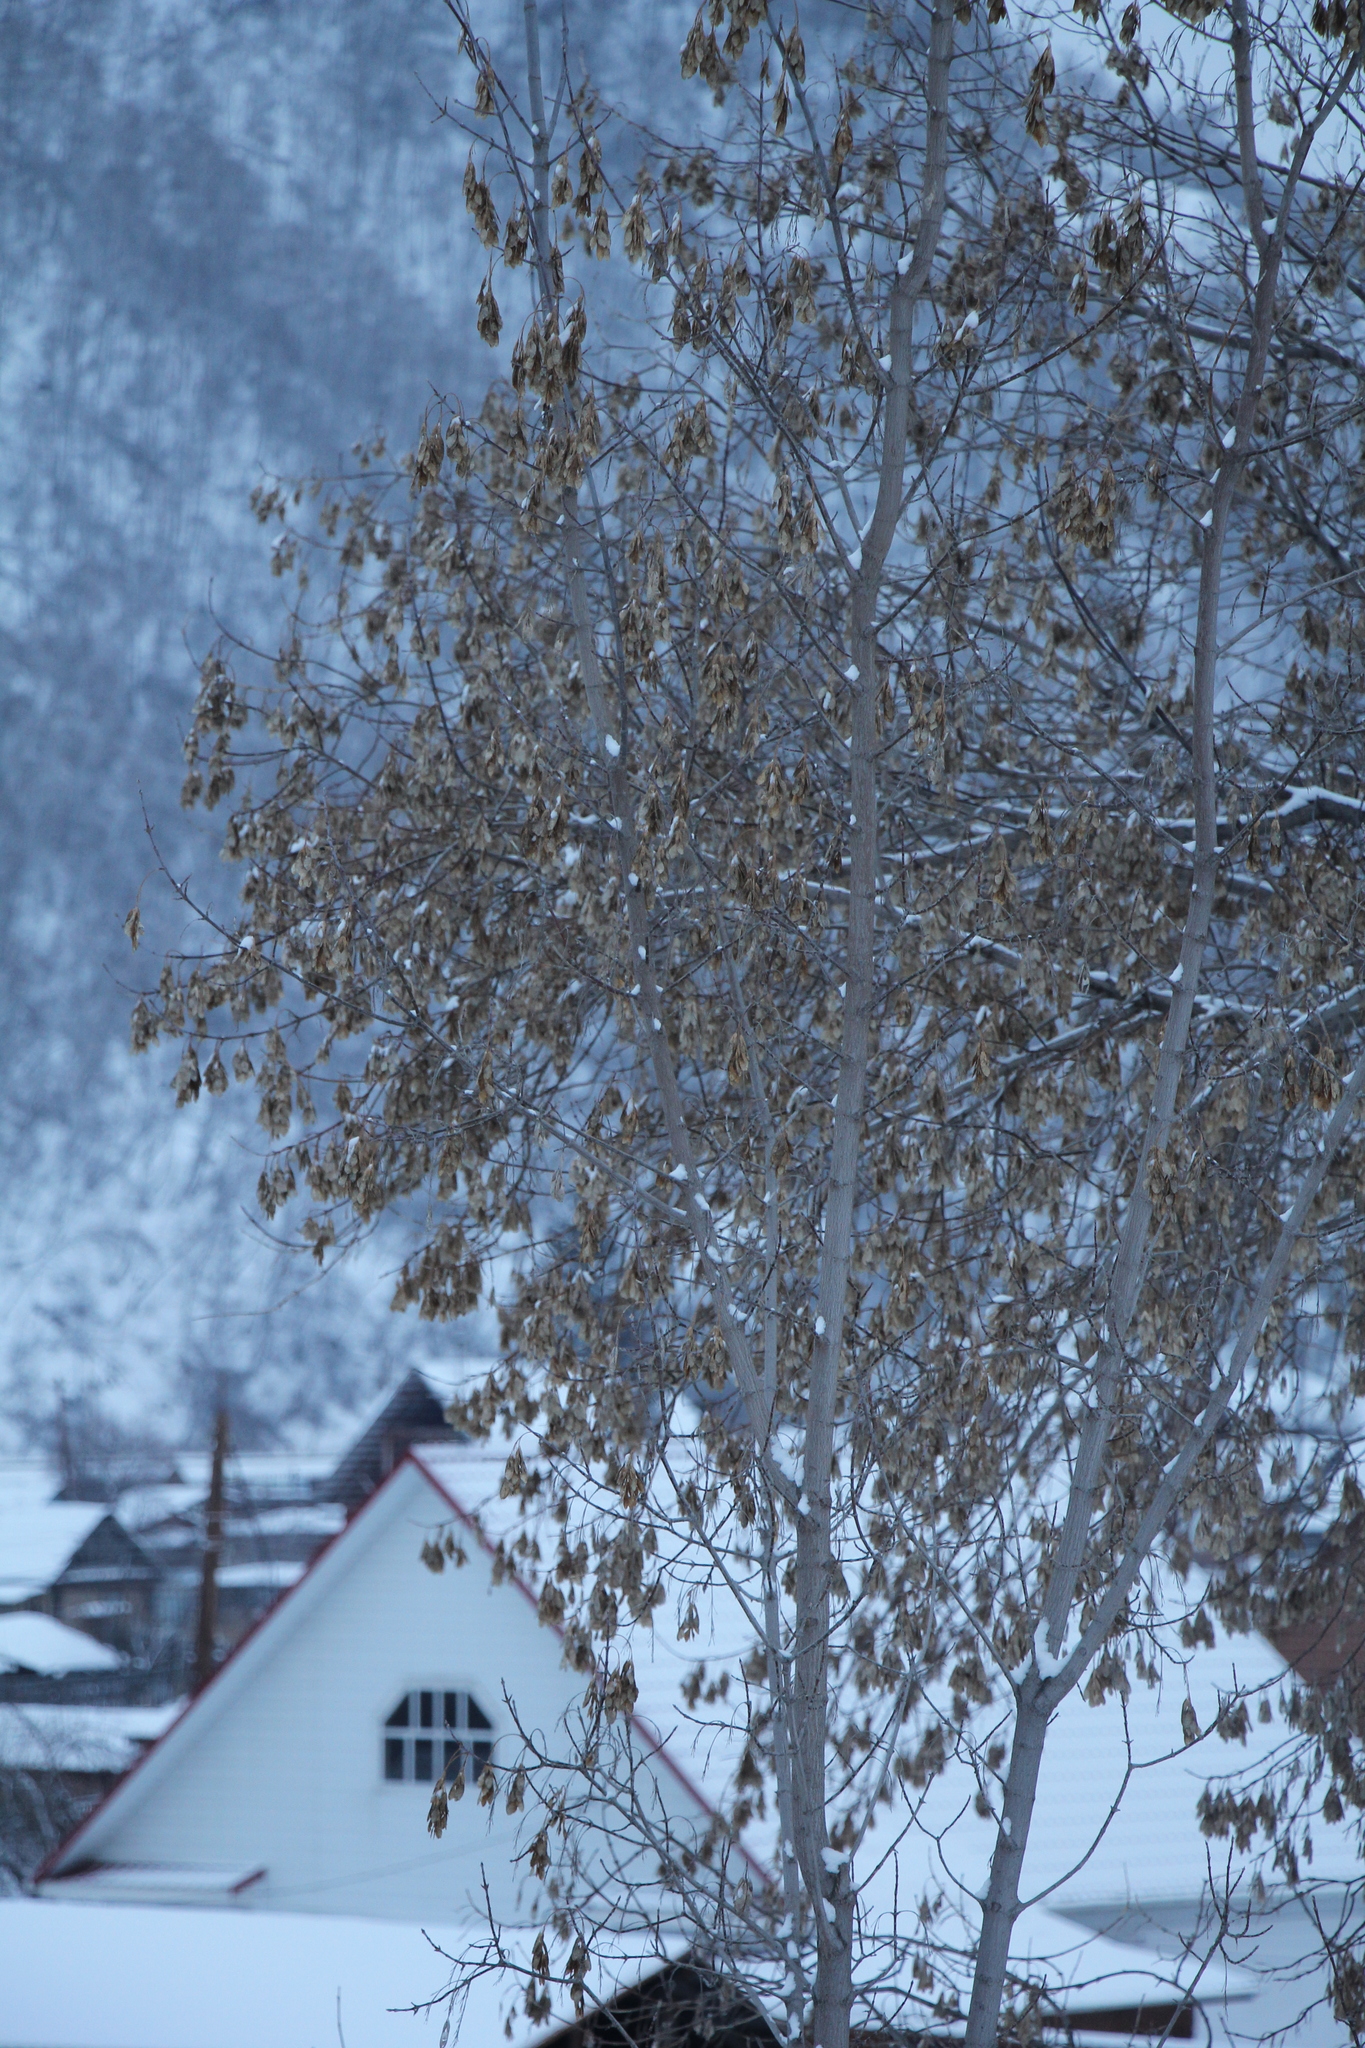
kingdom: Plantae
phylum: Tracheophyta
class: Magnoliopsida
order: Sapindales
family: Sapindaceae
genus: Acer
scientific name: Acer negundo
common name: Ashleaf maple
